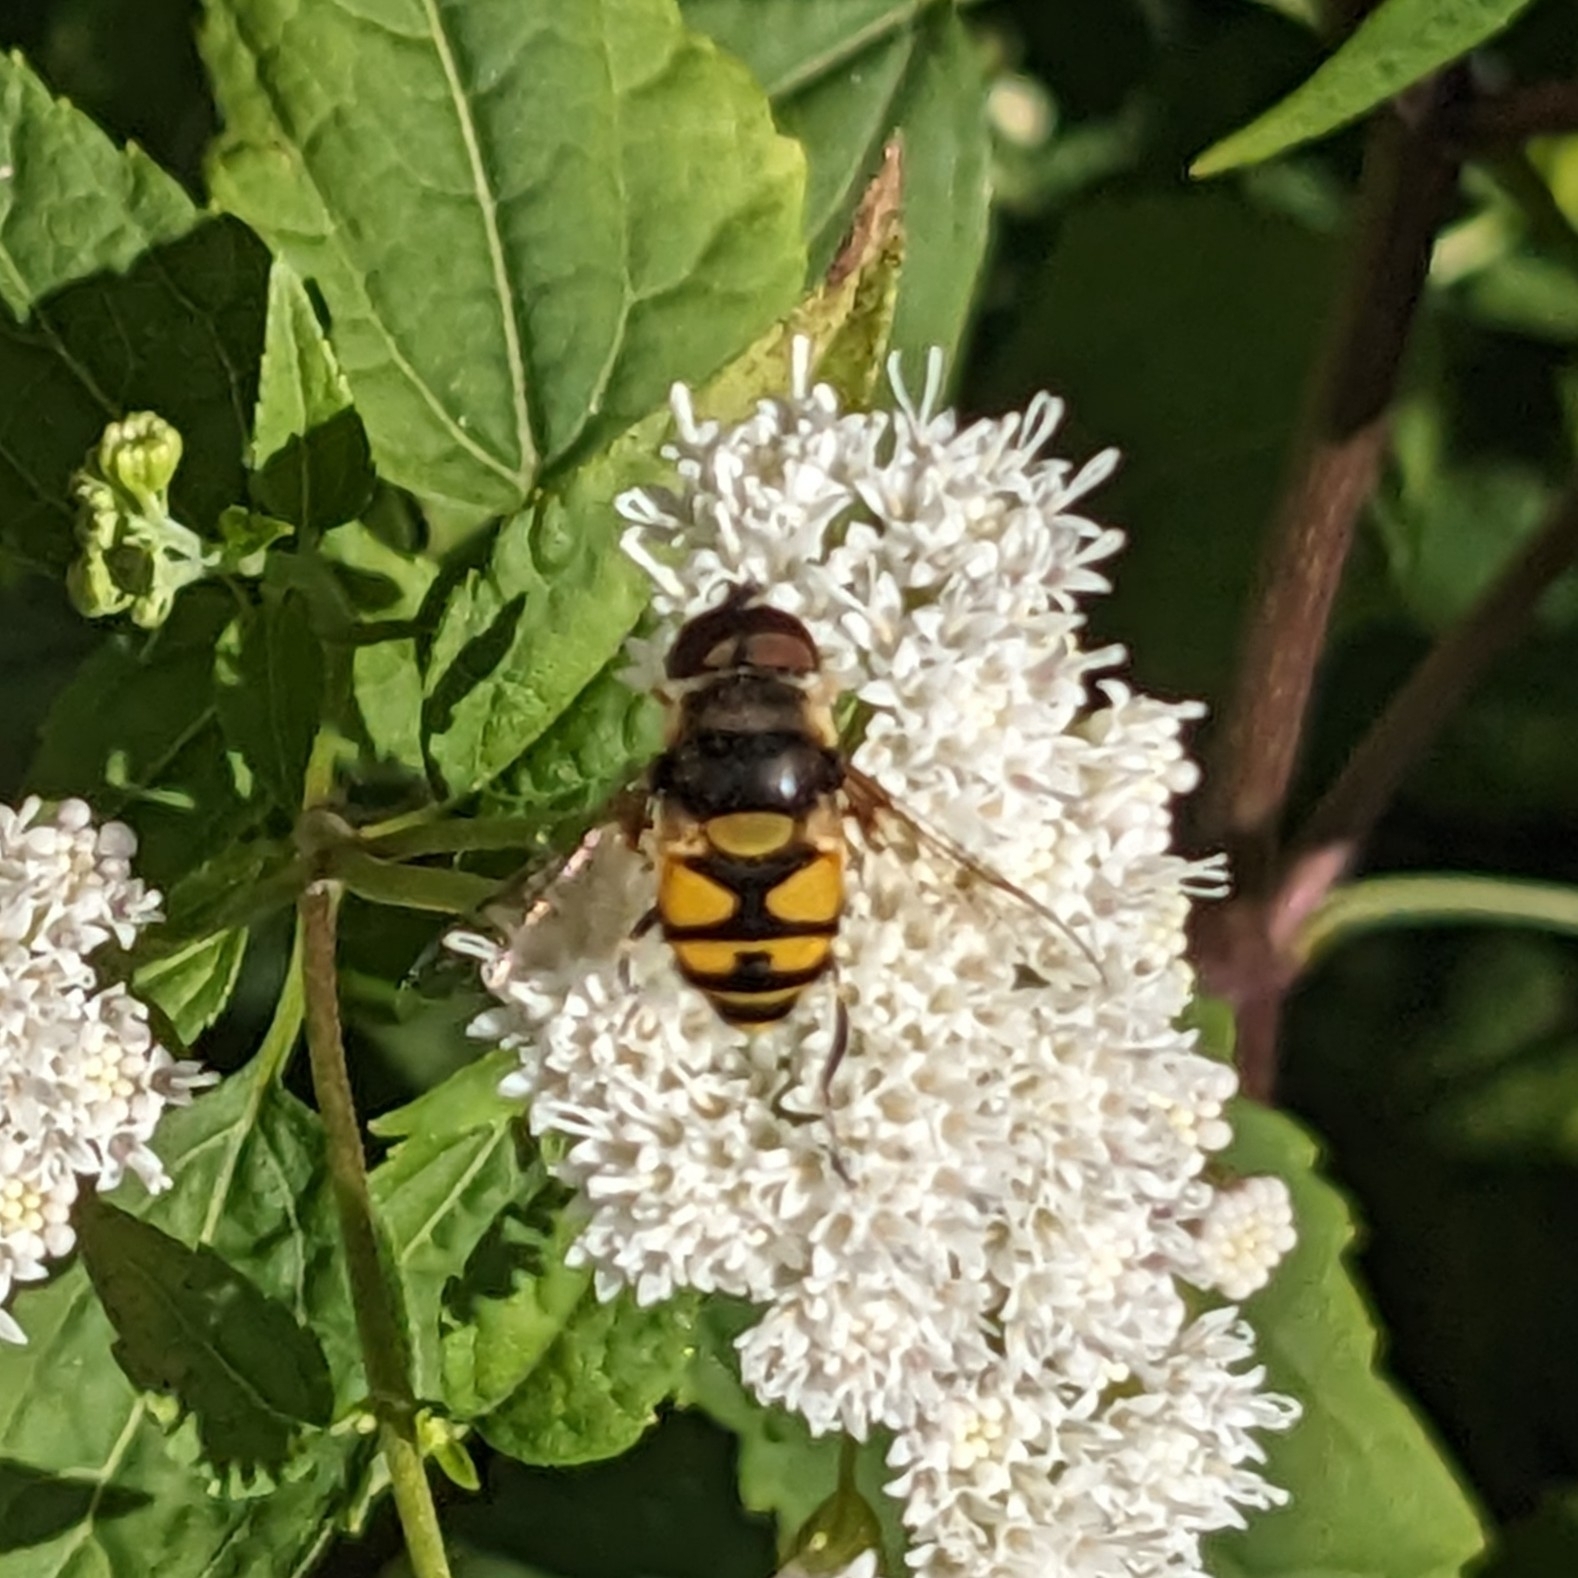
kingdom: Animalia
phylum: Arthropoda
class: Insecta
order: Diptera
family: Syrphidae
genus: Eristalis
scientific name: Eristalis transversa
